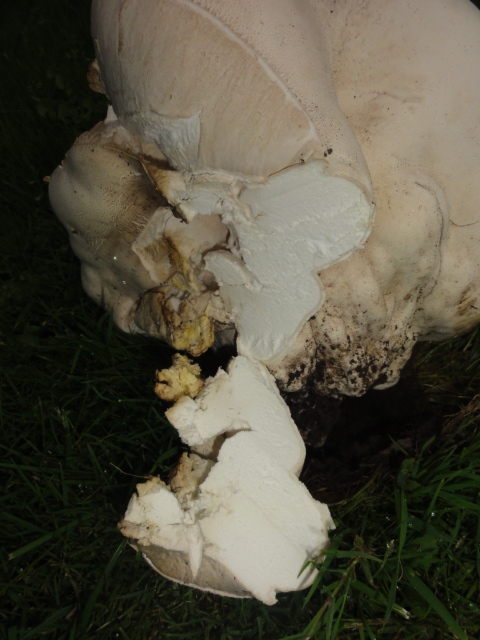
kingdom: Fungi
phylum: Basidiomycota
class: Agaricomycetes
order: Agaricales
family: Lycoperdaceae
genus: Calvatia
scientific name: Calvatia gigantea
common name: Giant puffball
